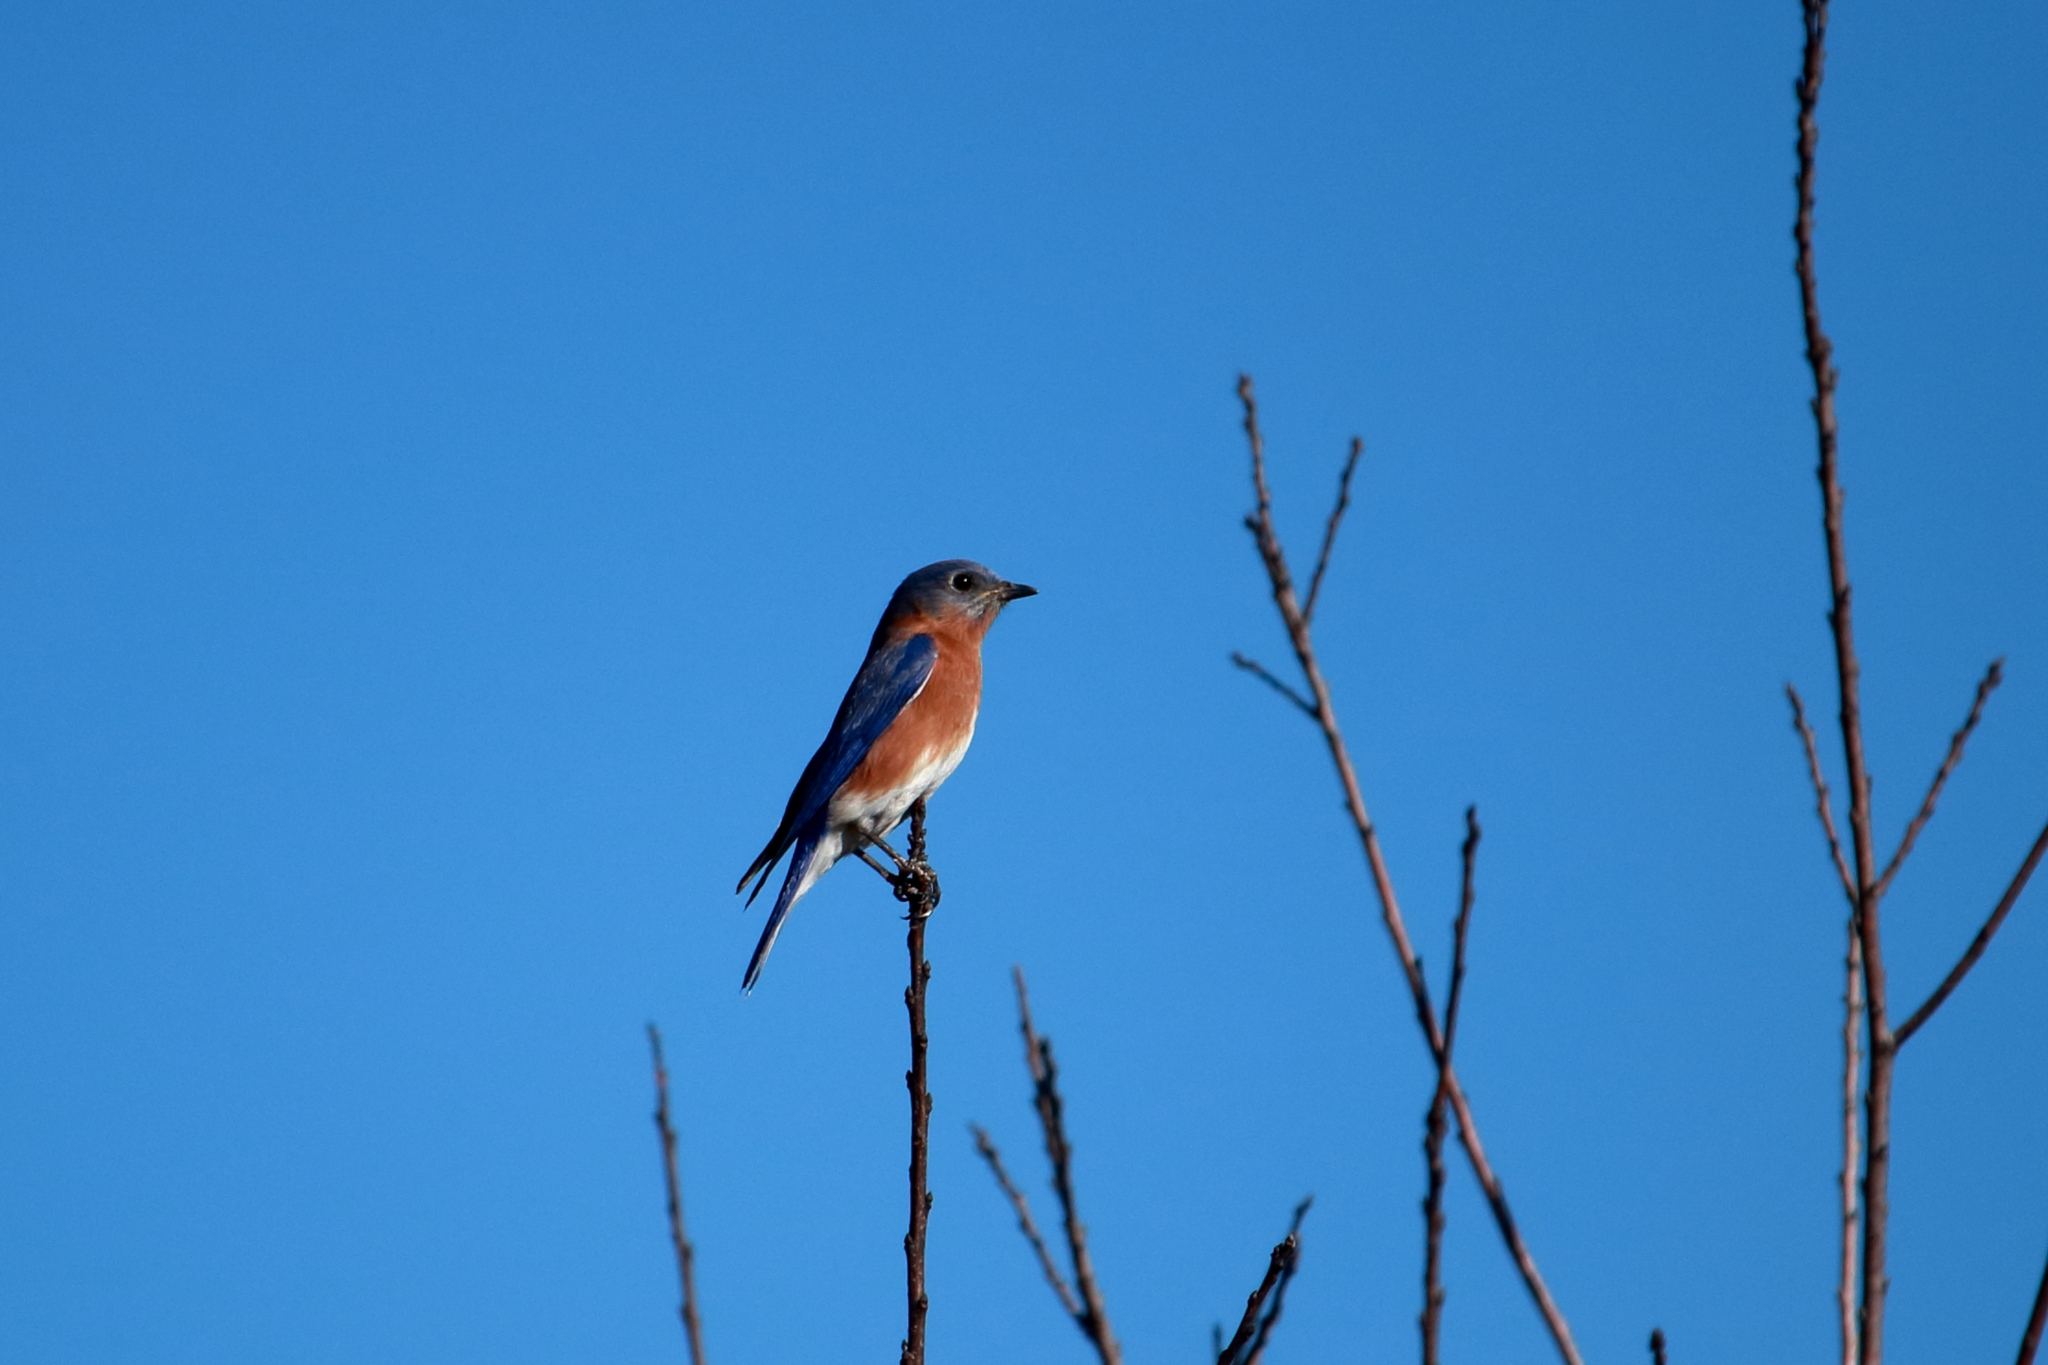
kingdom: Animalia
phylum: Chordata
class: Aves
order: Passeriformes
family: Turdidae
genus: Sialia
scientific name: Sialia sialis
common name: Eastern bluebird
